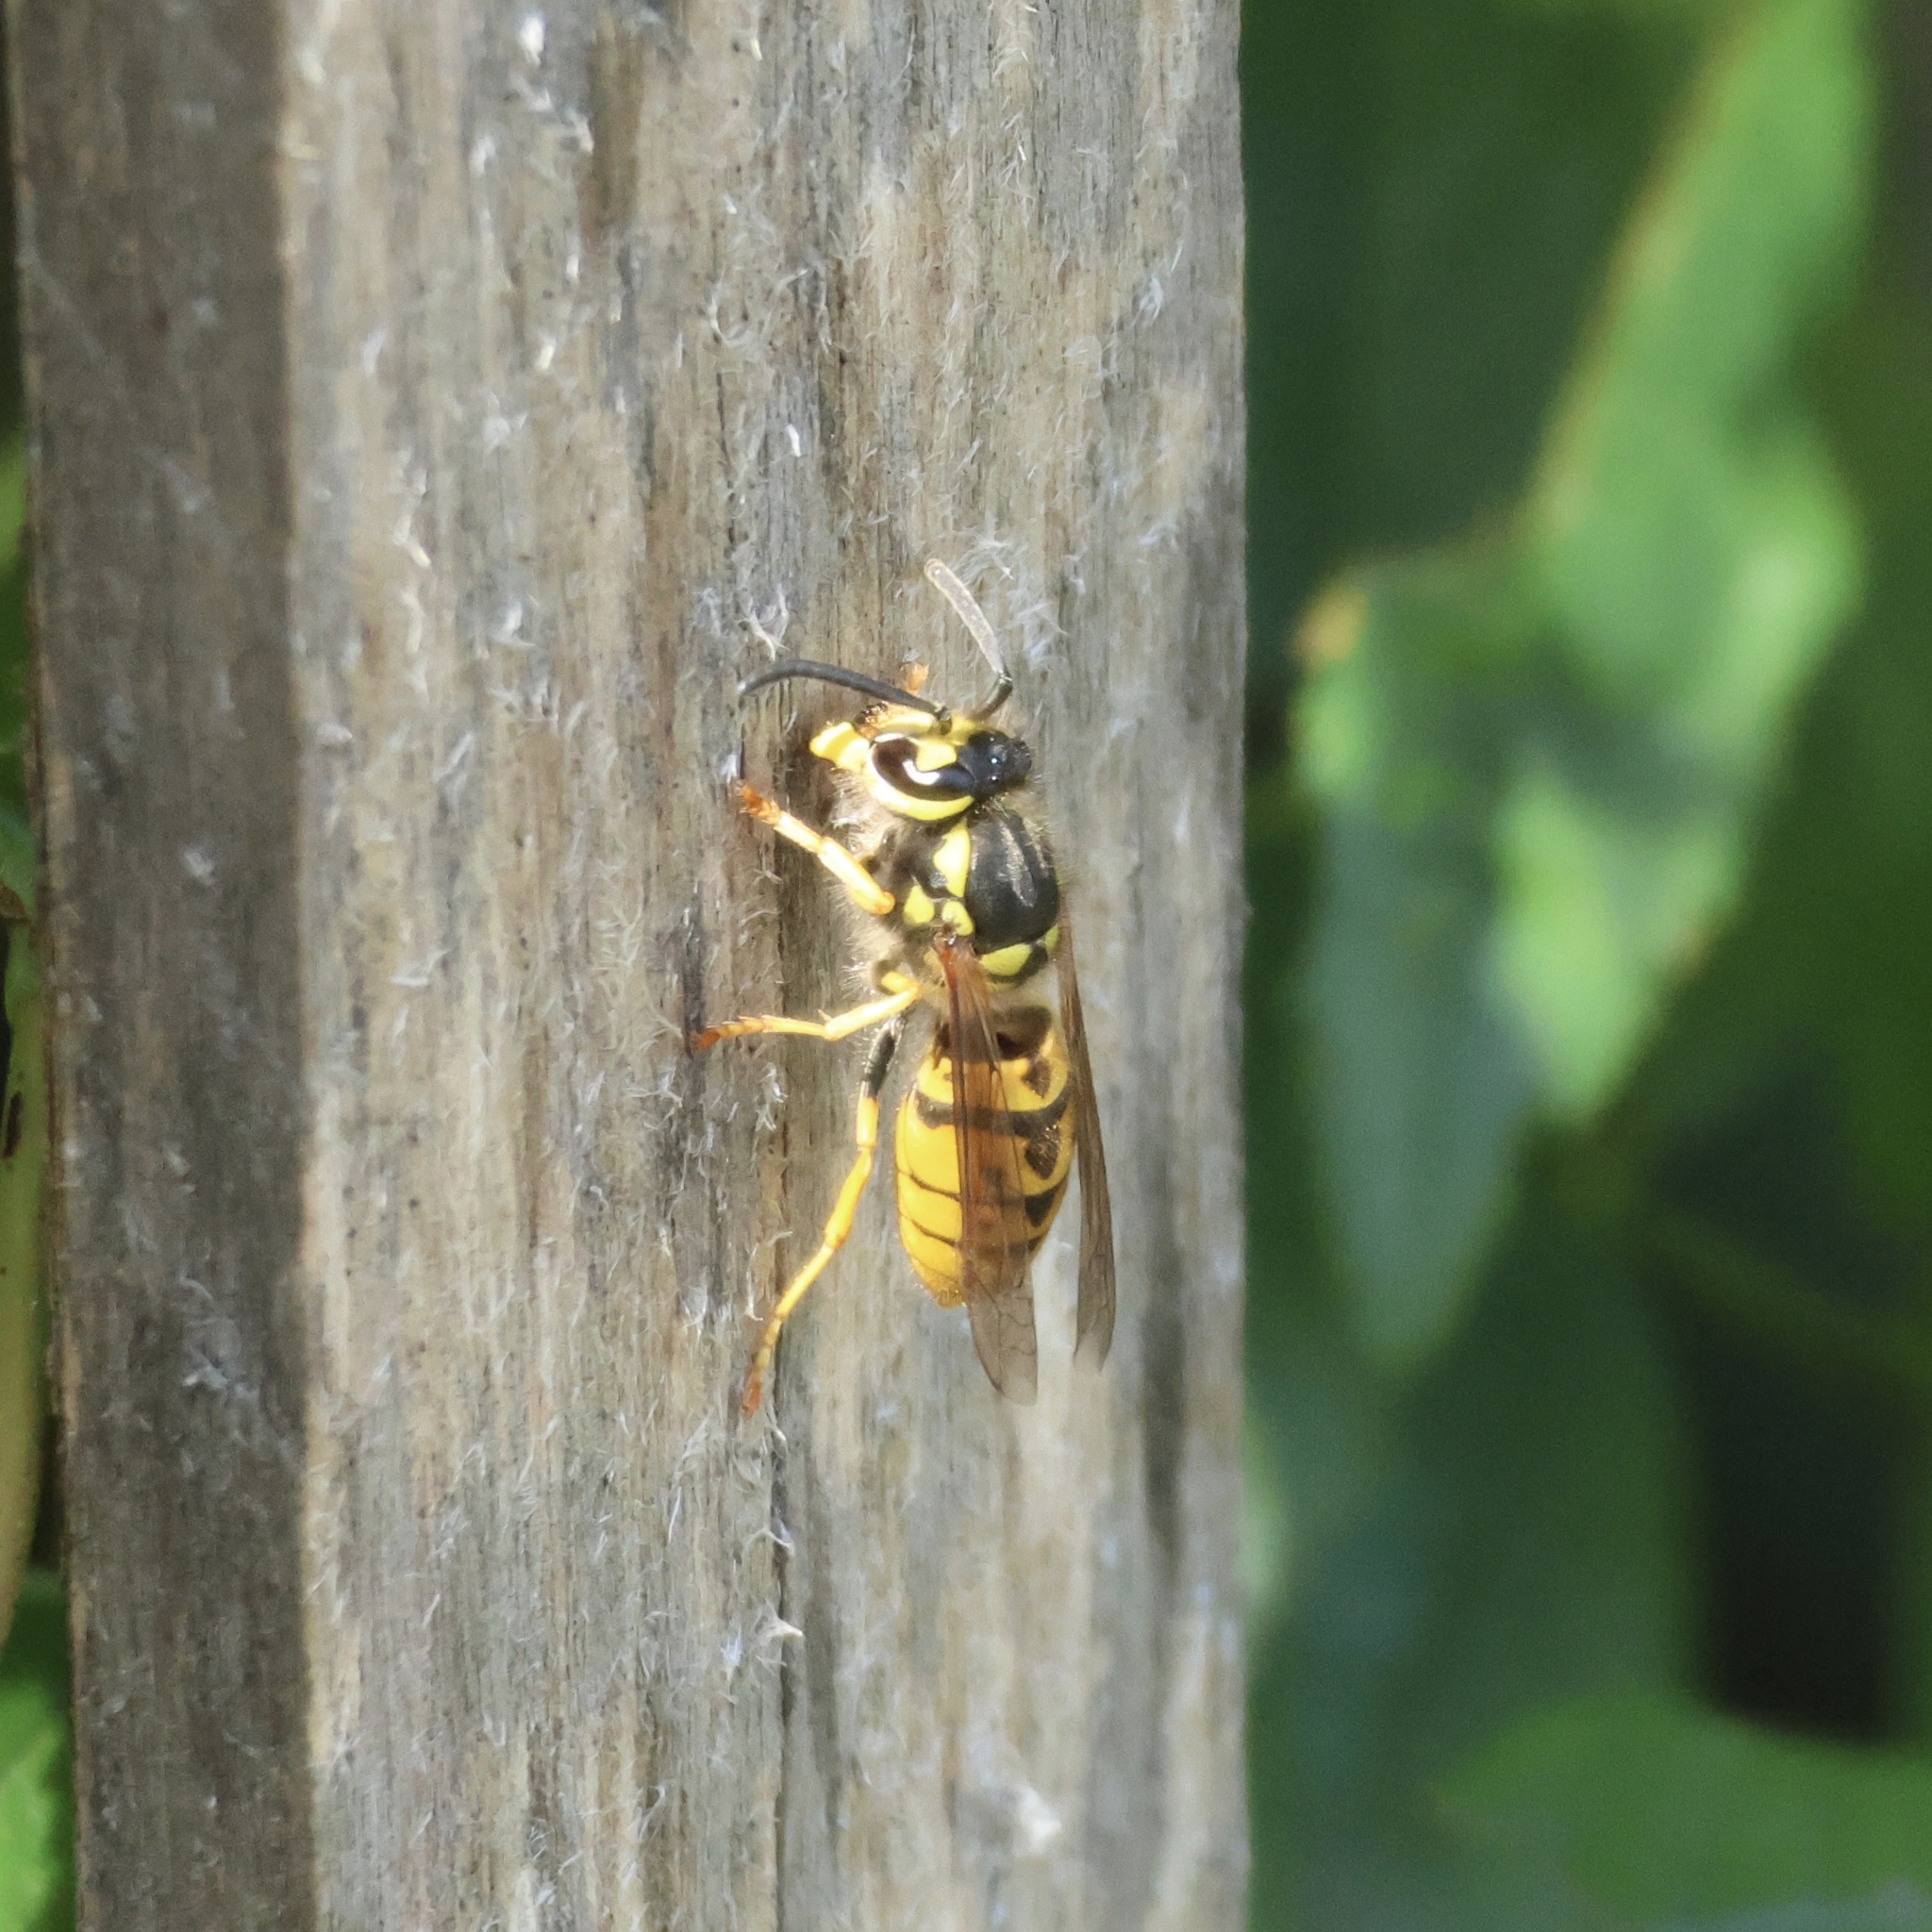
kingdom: Animalia
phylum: Arthropoda
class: Insecta
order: Hymenoptera
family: Vespidae
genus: Vespula
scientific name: Vespula germanica
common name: German wasp
